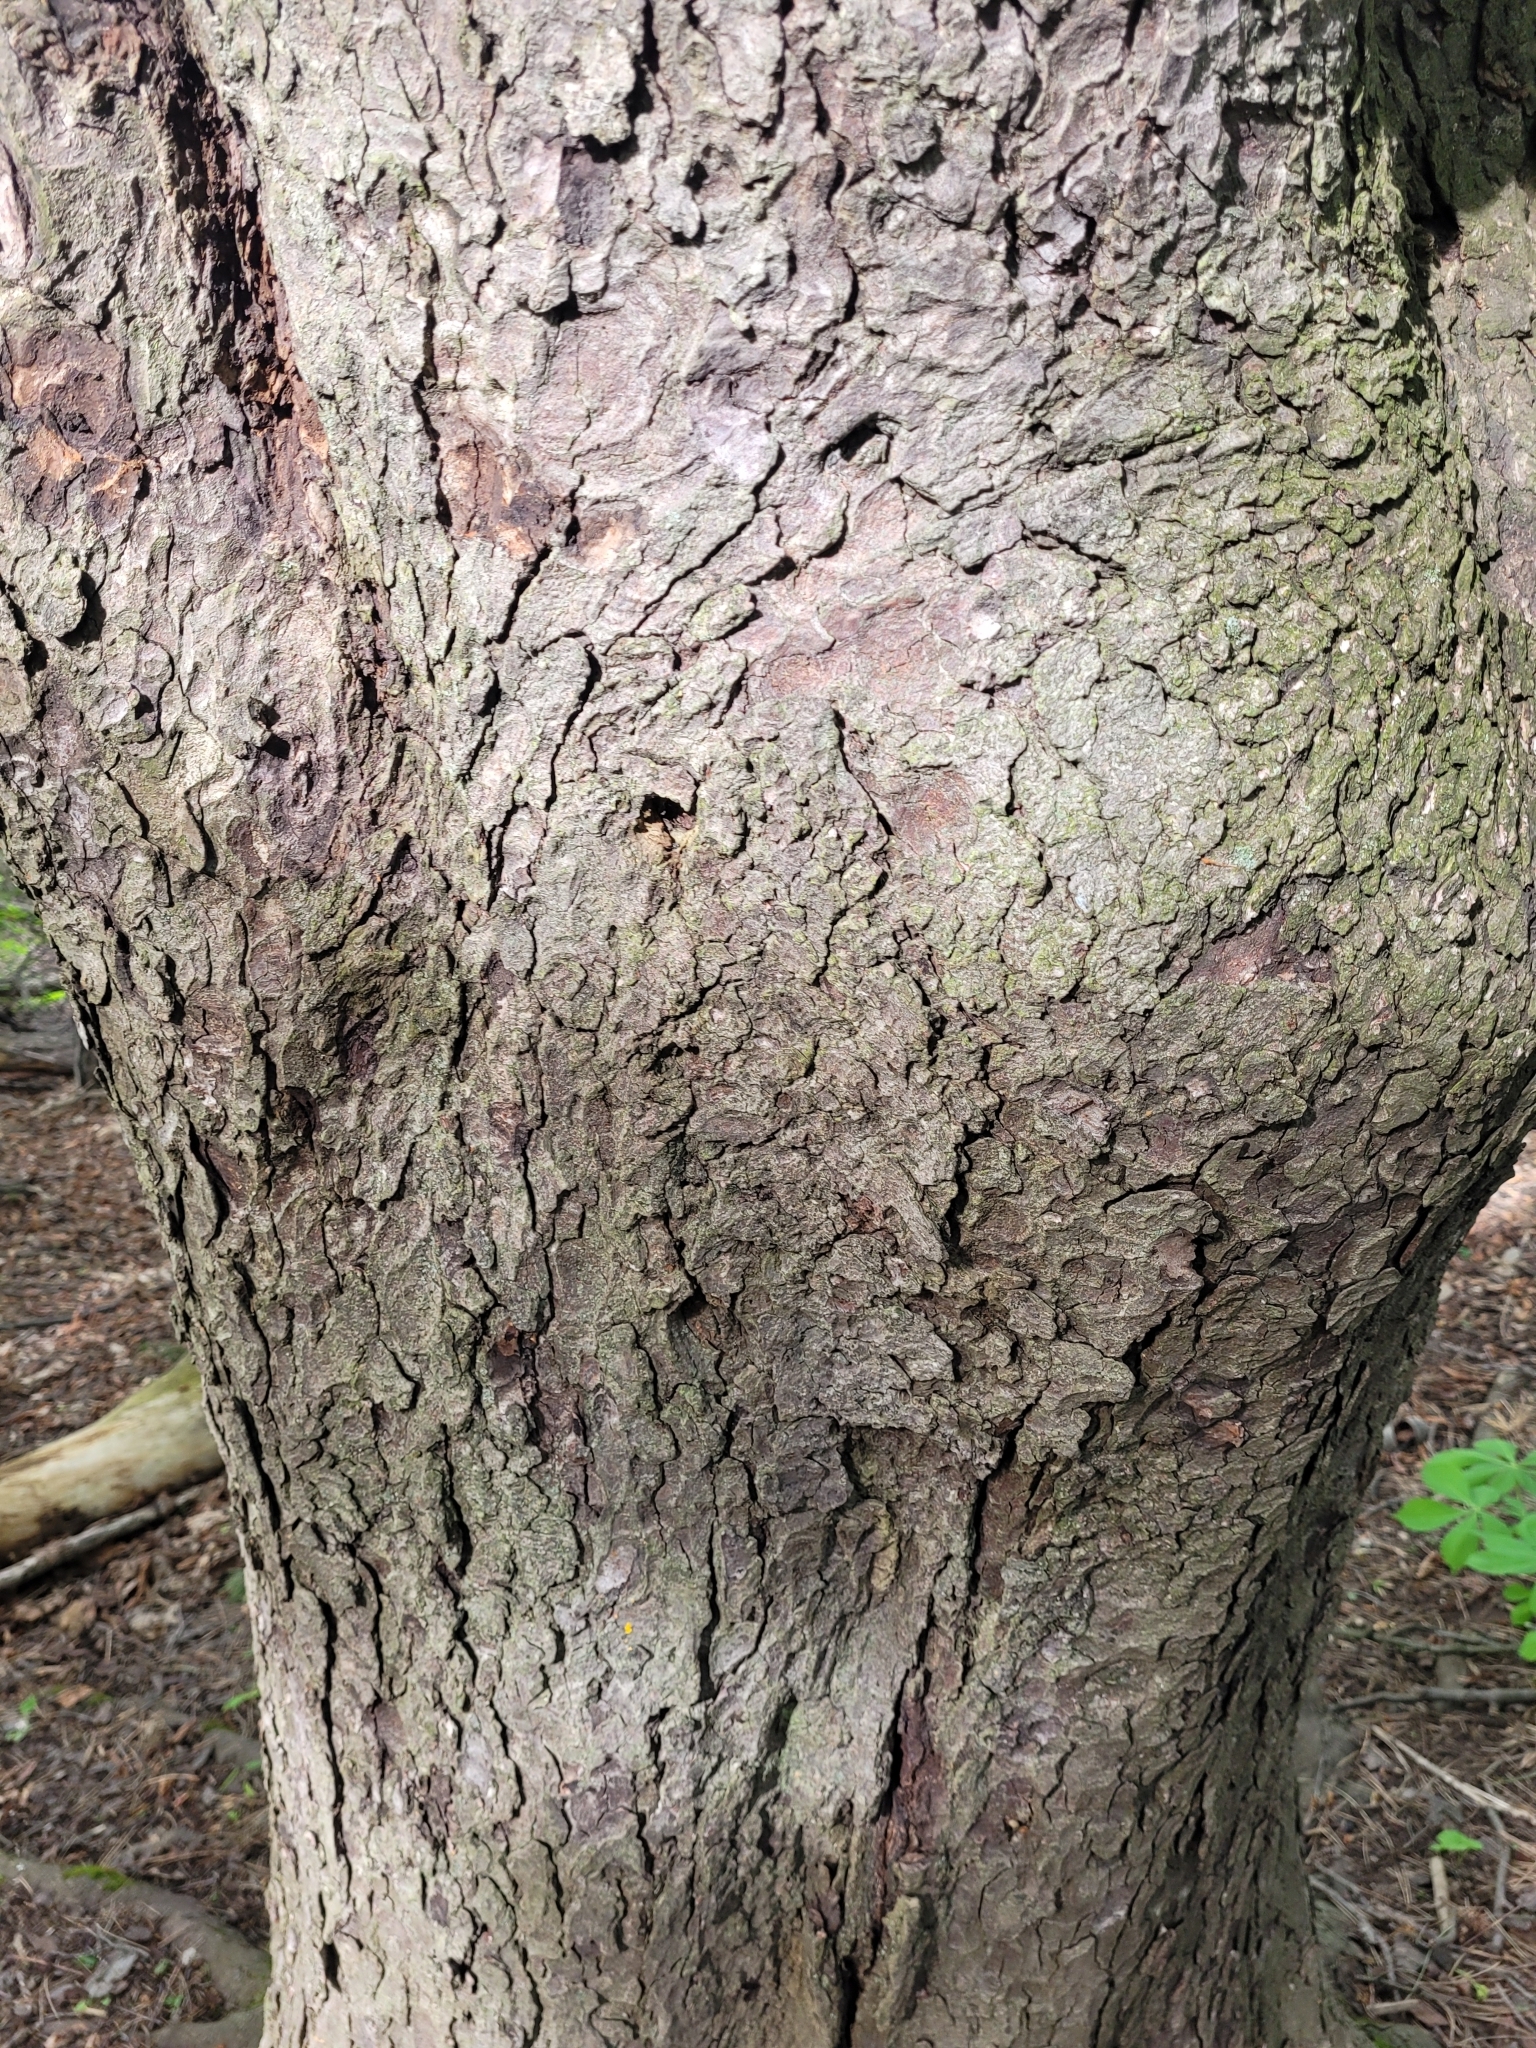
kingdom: Plantae
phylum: Tracheophyta
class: Magnoliopsida
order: Sapindales
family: Sapindaceae
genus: Aesculus
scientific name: Aesculus hippocastanum
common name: Horse-chestnut
